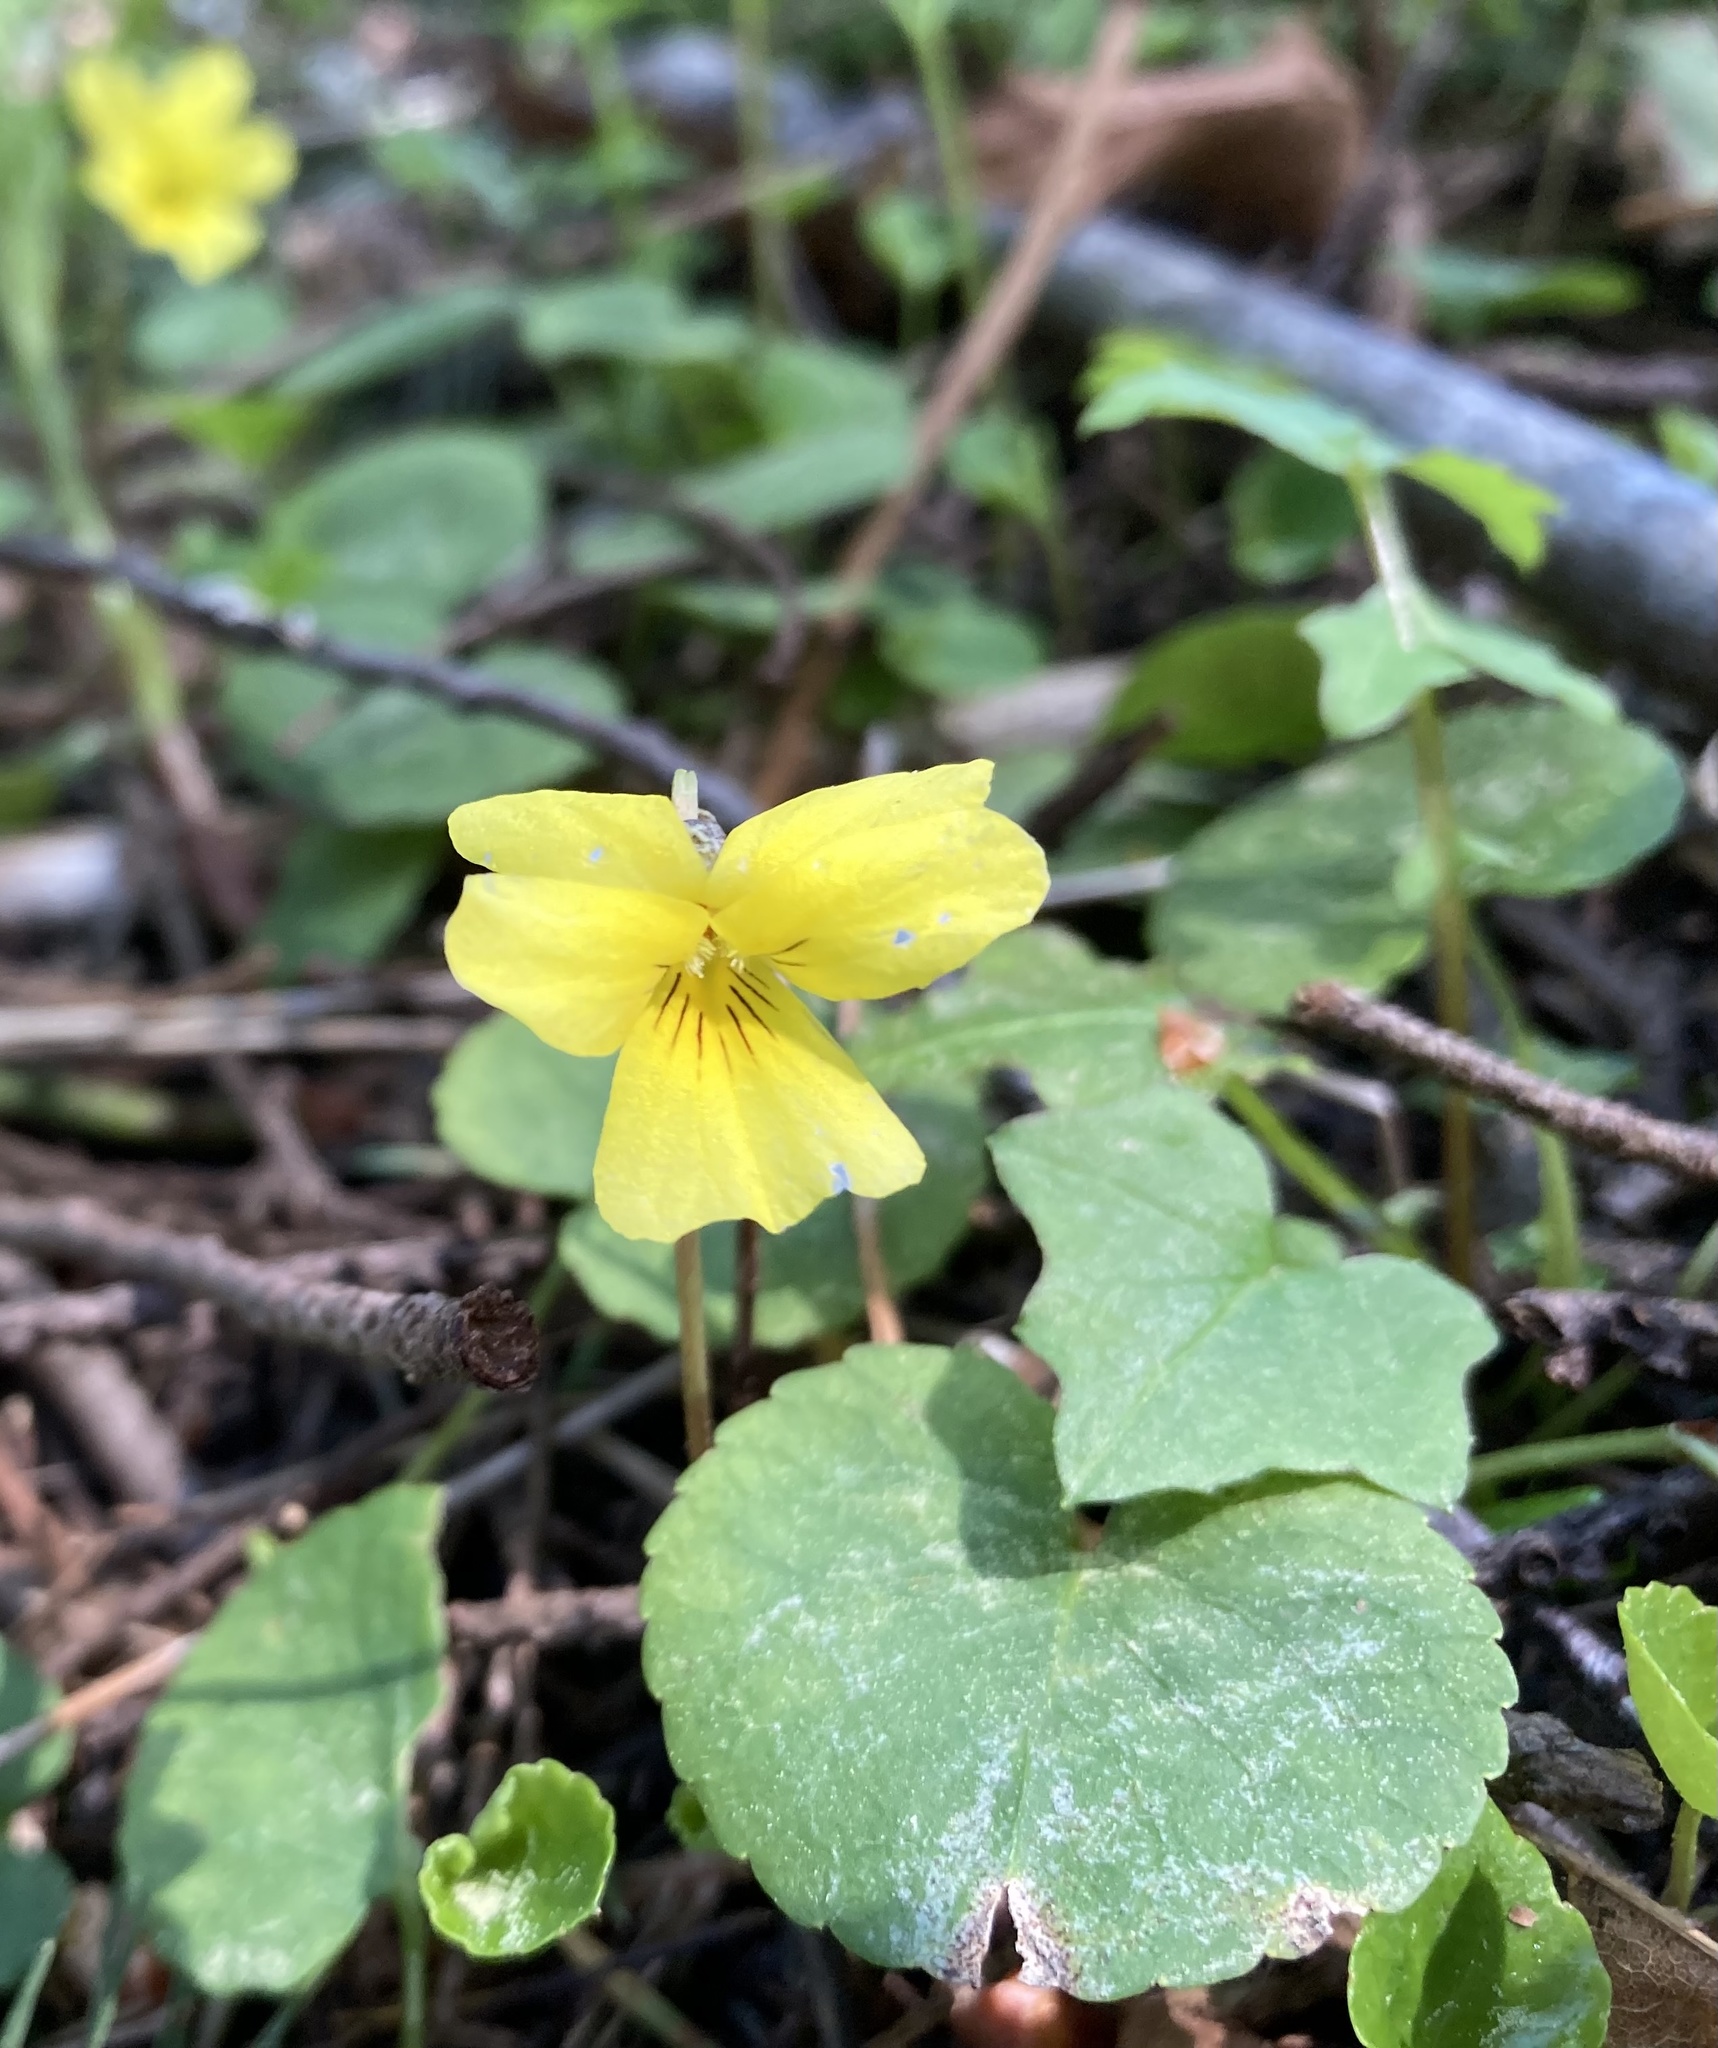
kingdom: Plantae
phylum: Tracheophyta
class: Magnoliopsida
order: Malpighiales
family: Violaceae
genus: Viola
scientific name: Viola sempervirens
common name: Evergreen violet
